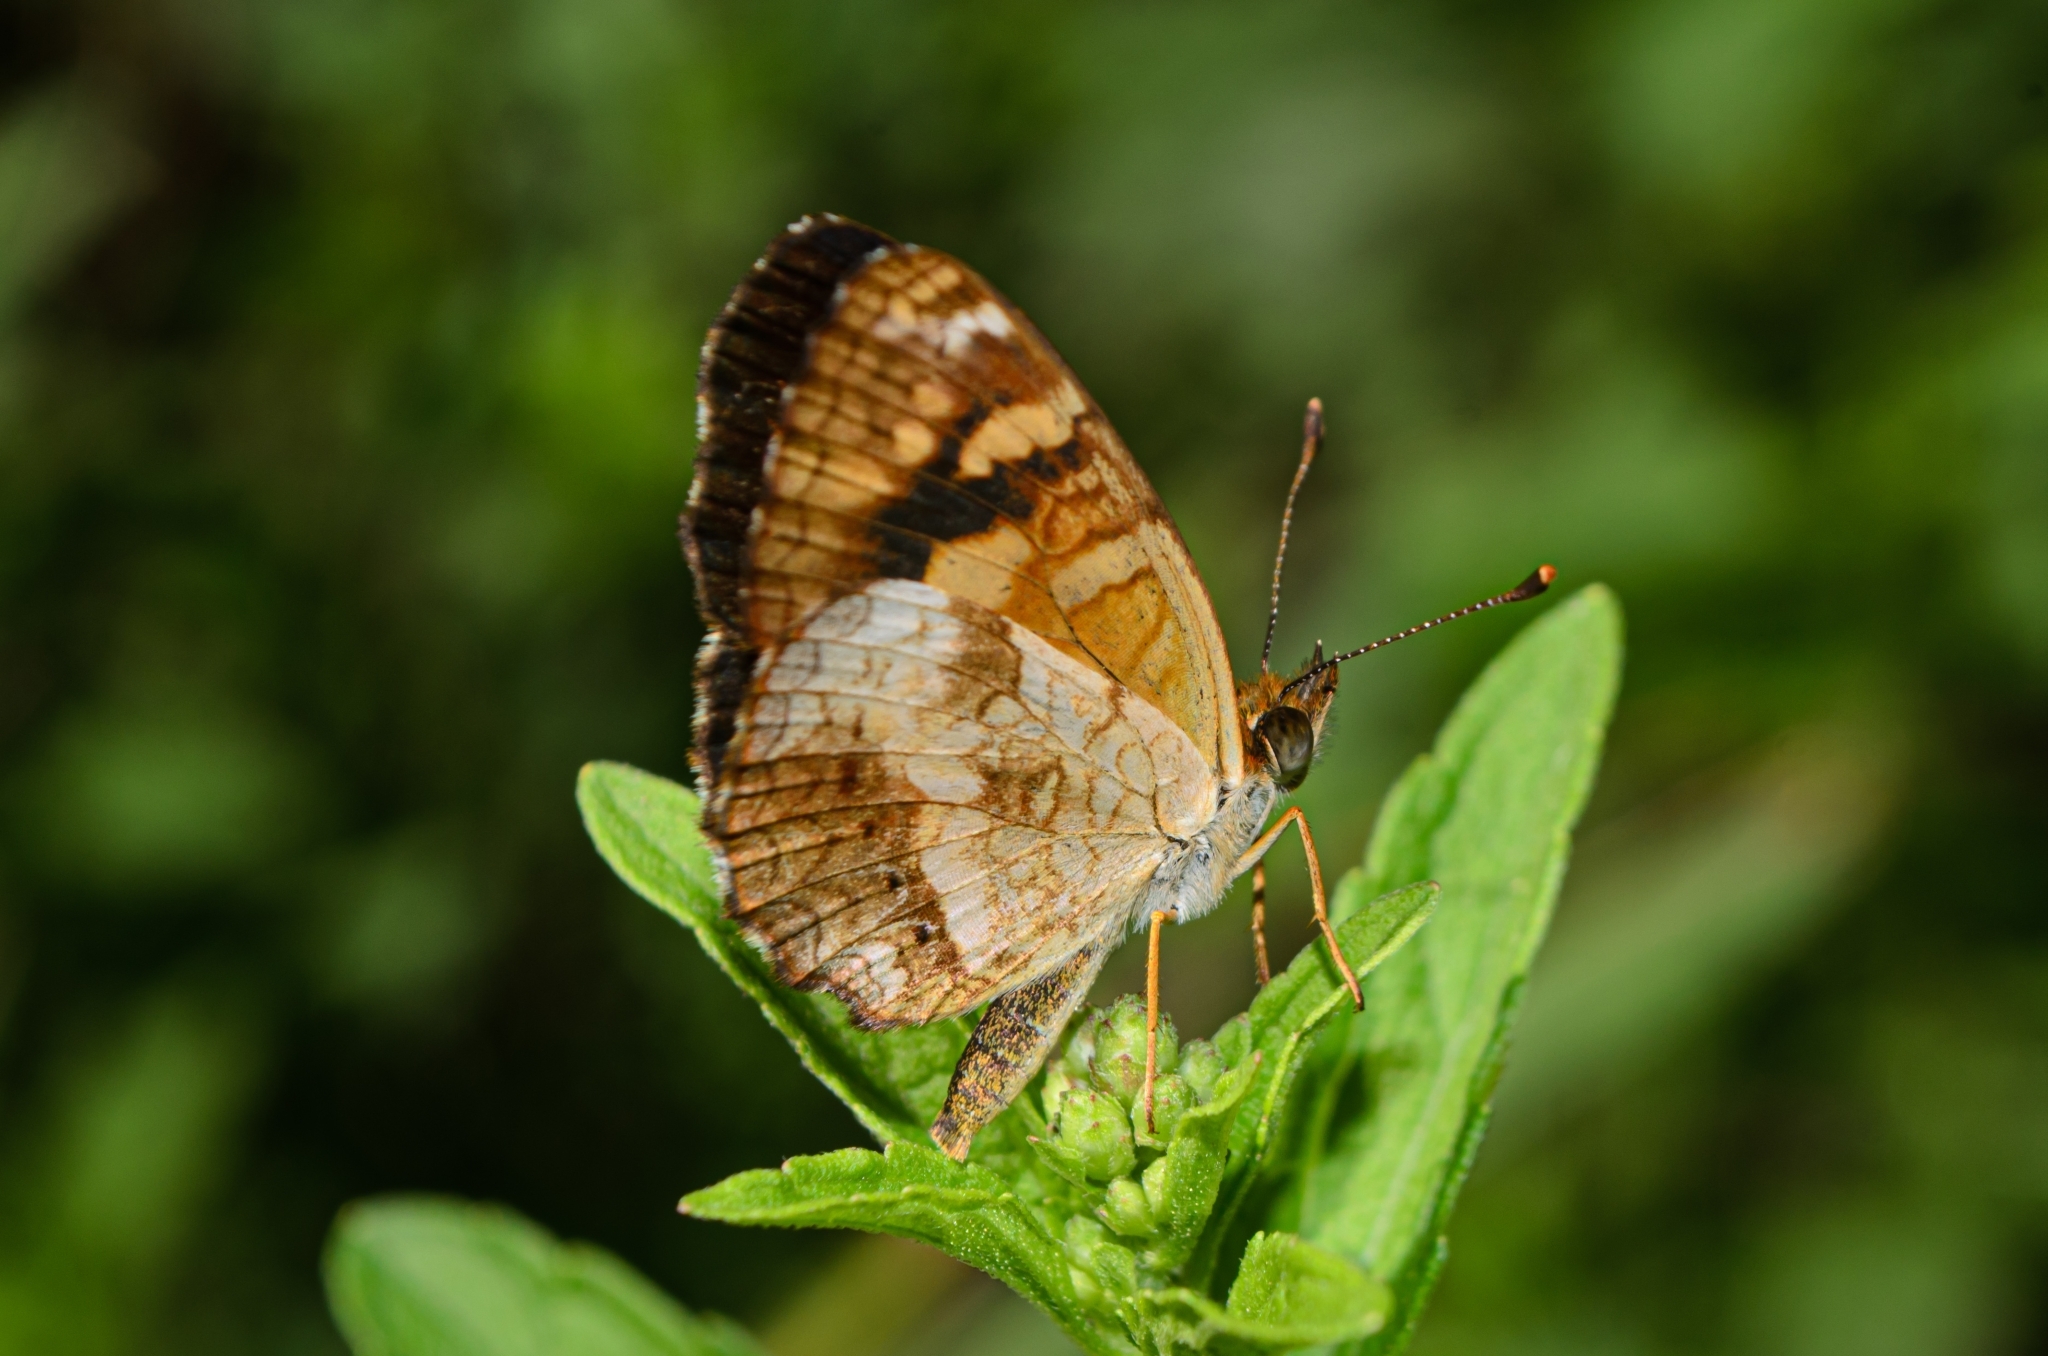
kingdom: Animalia
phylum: Arthropoda
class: Insecta
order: Lepidoptera
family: Nymphalidae
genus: Ortilia
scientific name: Ortilia orthia
